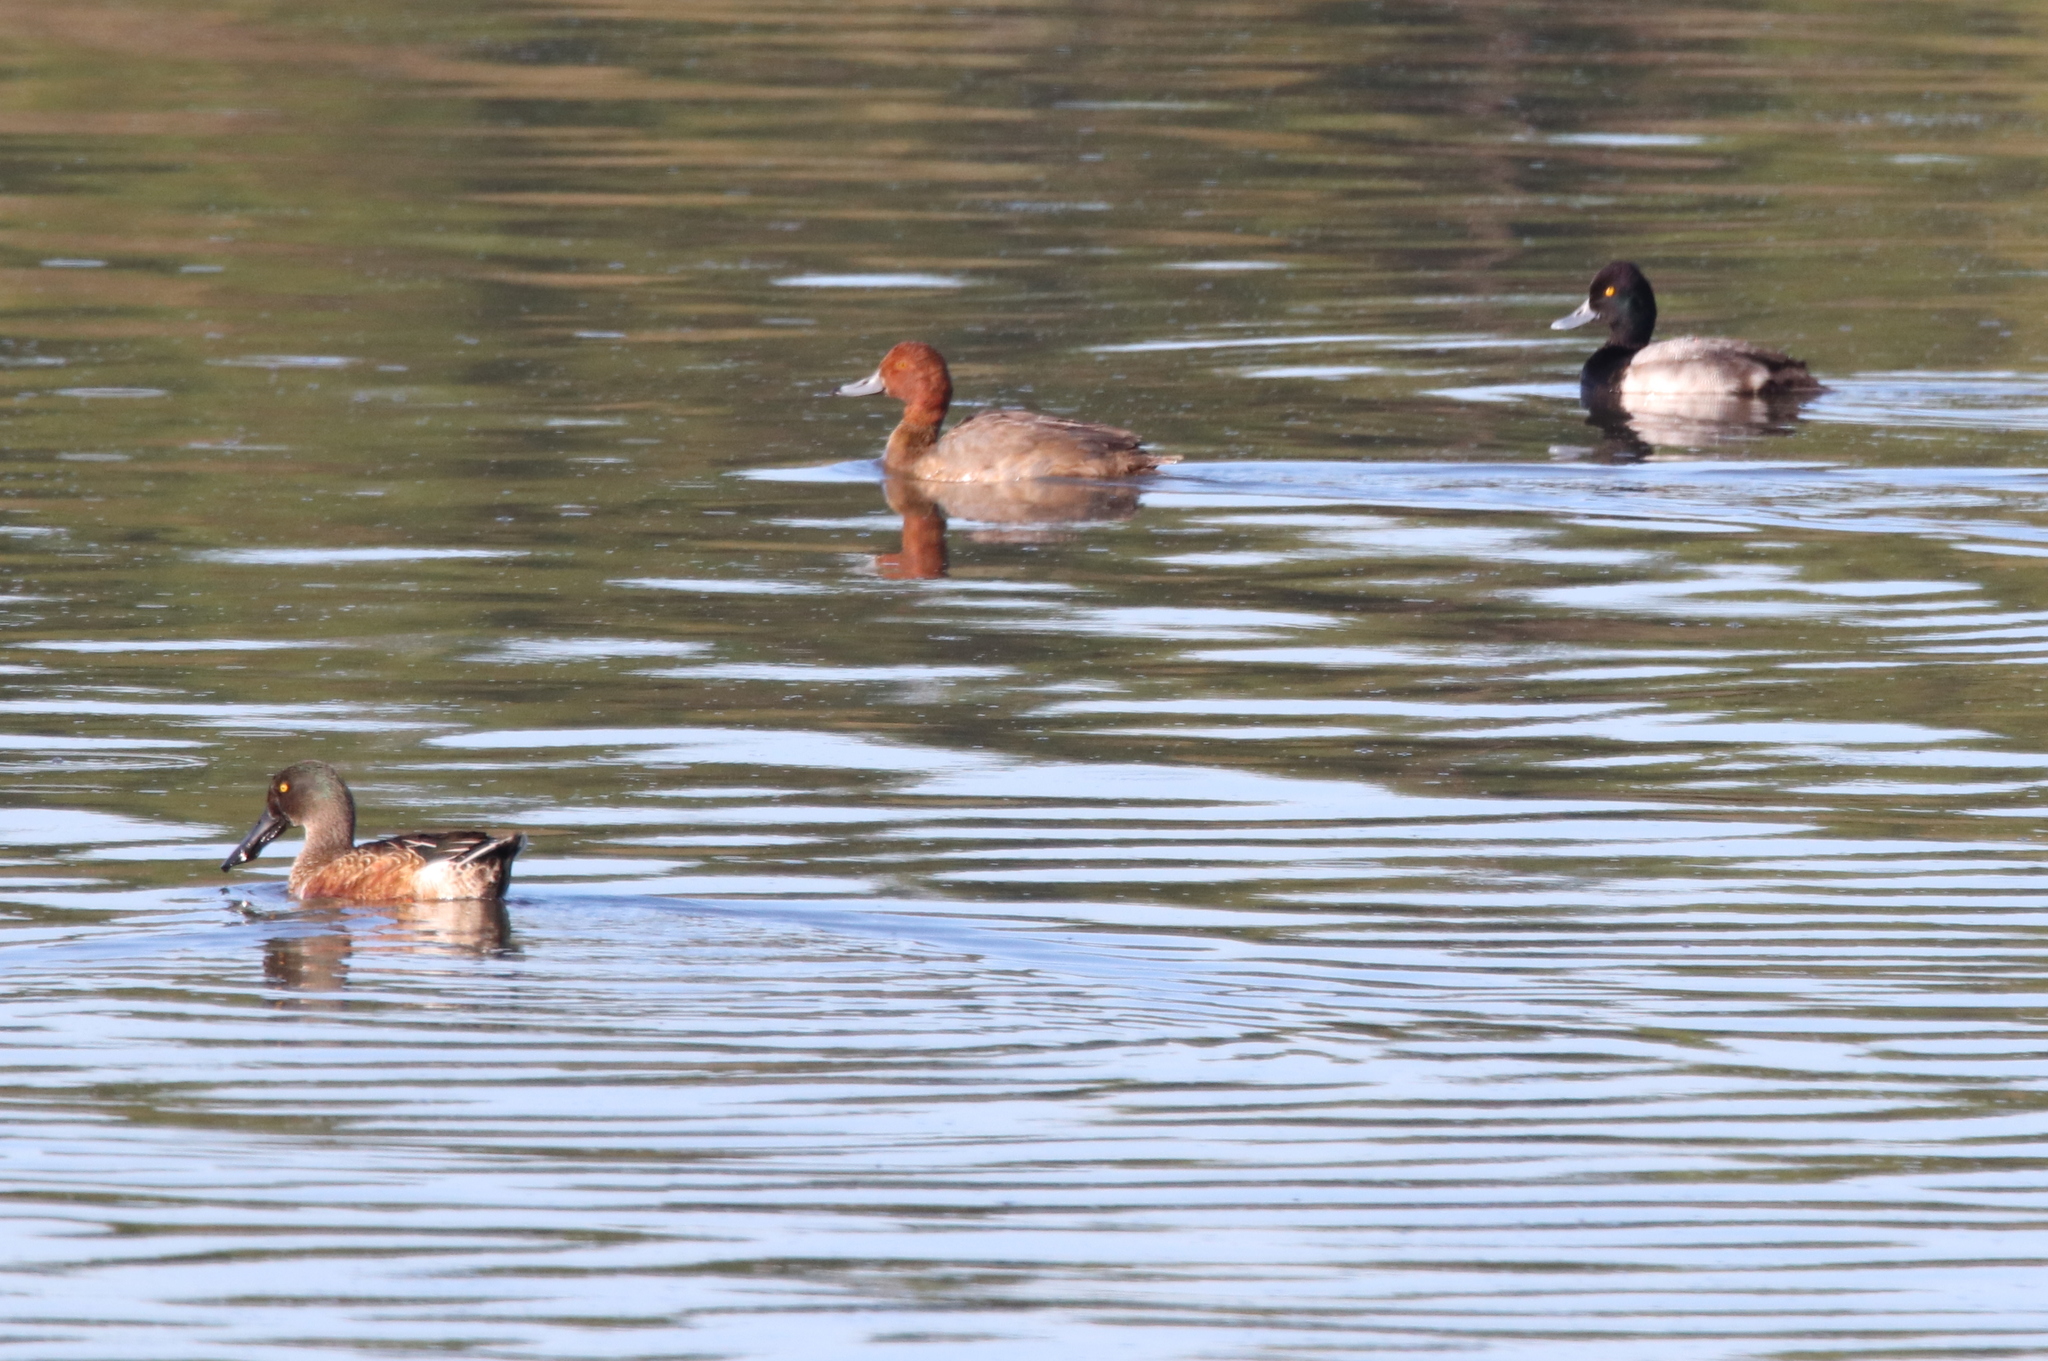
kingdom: Animalia
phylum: Chordata
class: Aves
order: Anseriformes
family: Anatidae
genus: Aythya
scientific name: Aythya americana
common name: Redhead
